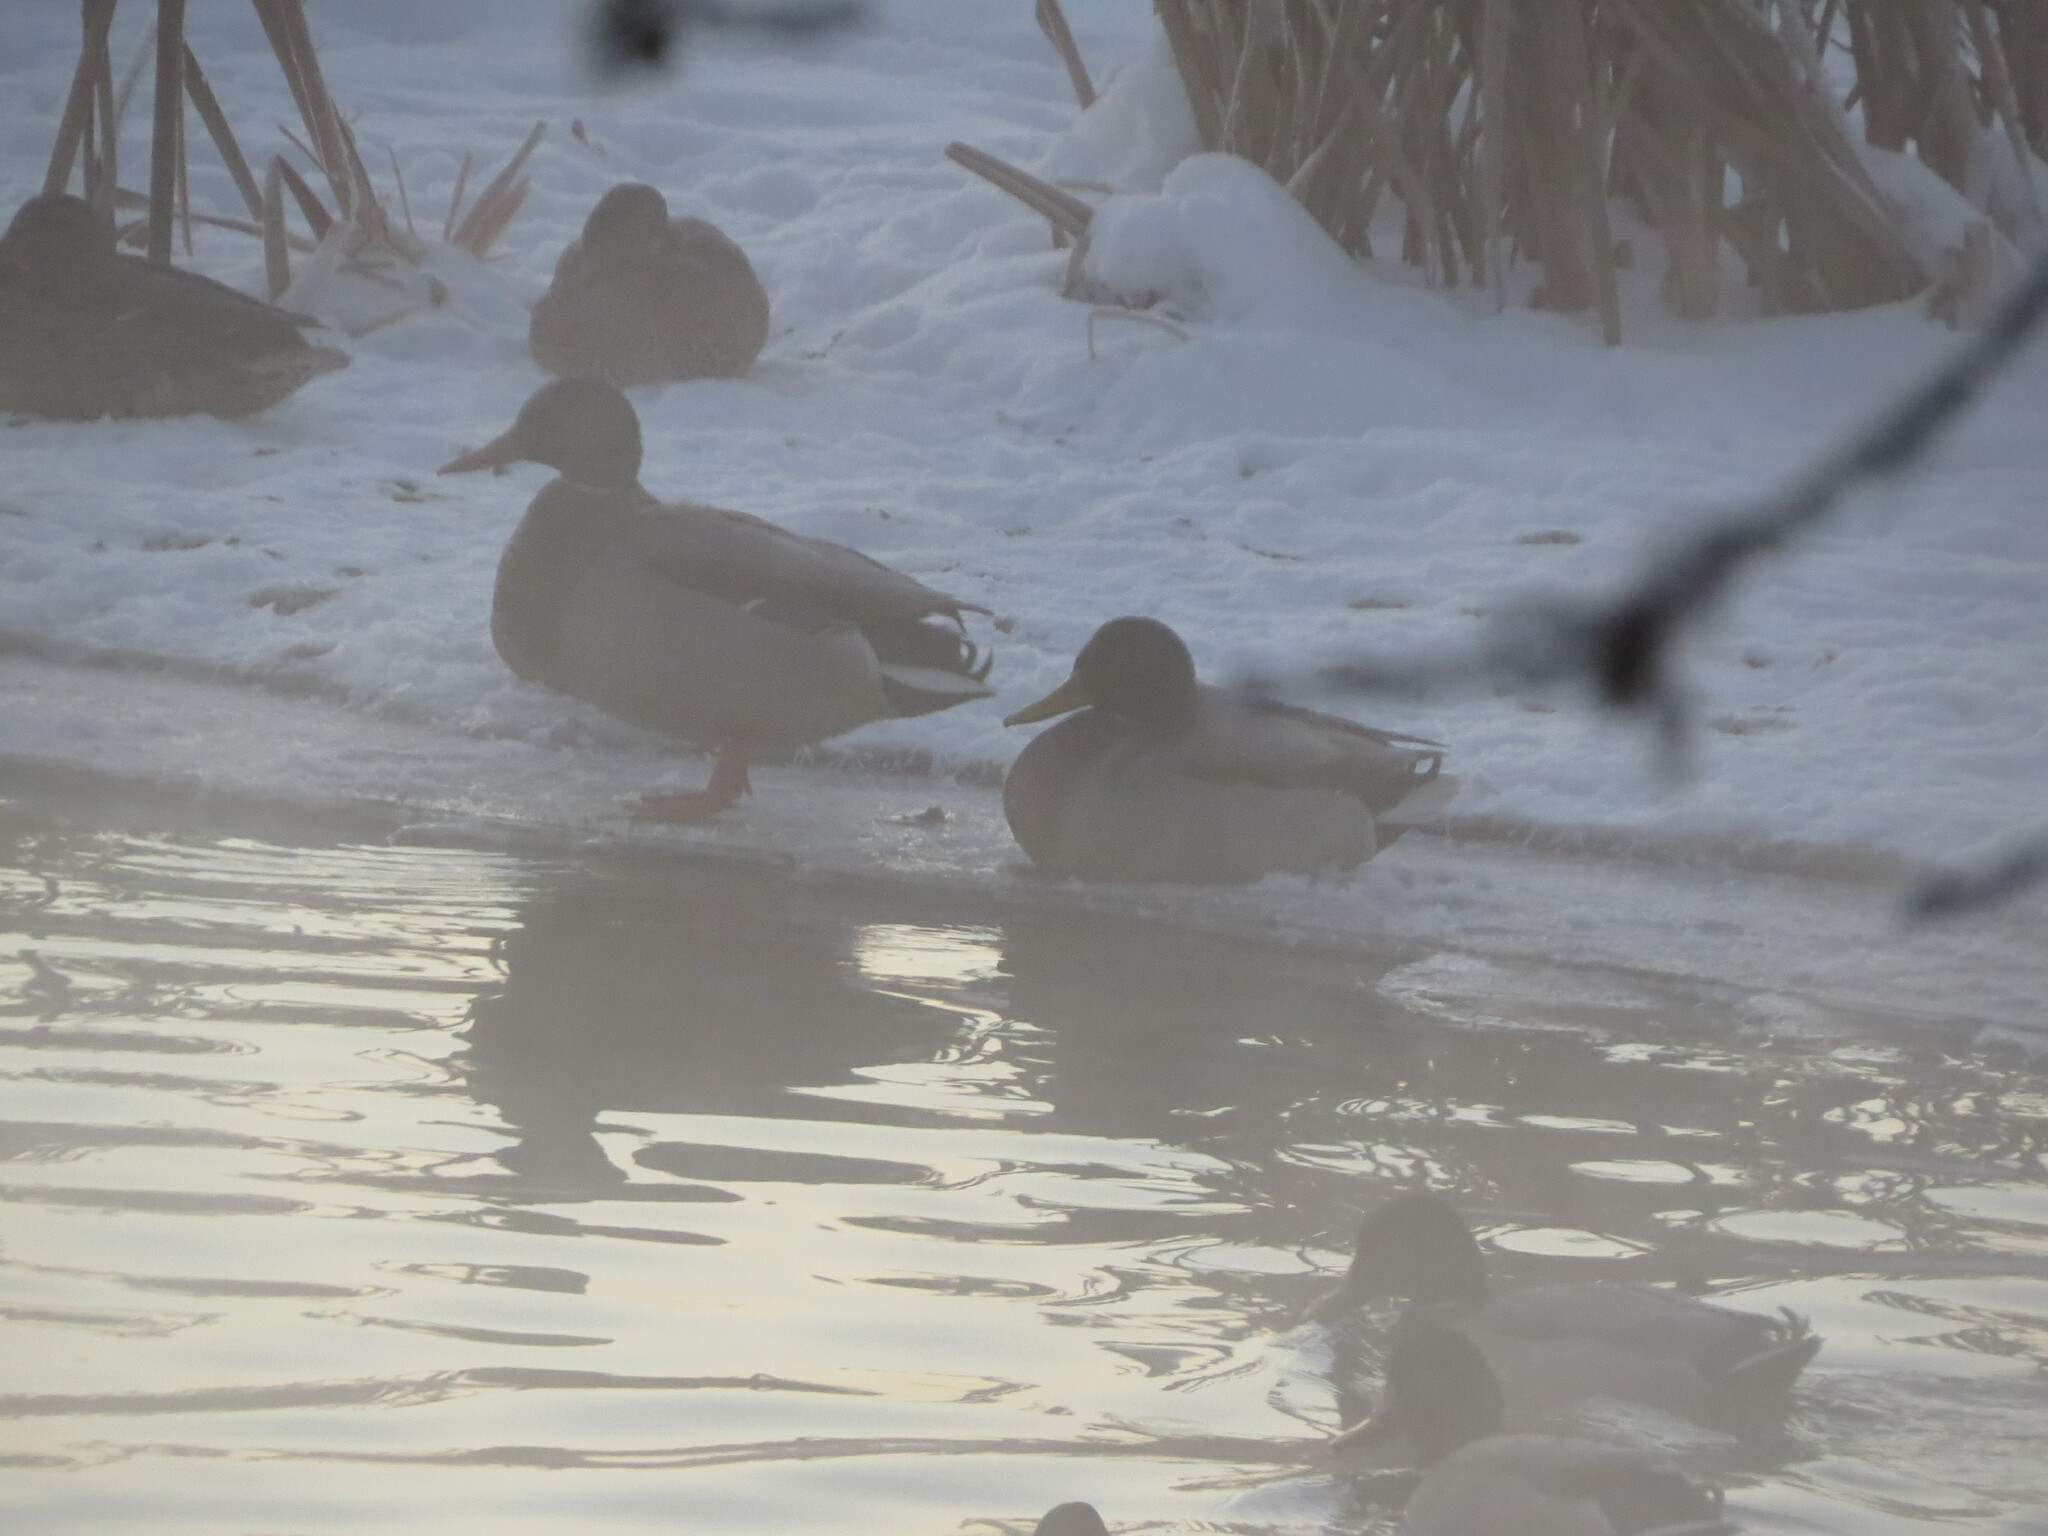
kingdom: Animalia
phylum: Chordata
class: Aves
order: Anseriformes
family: Anatidae
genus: Anas
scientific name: Anas platyrhynchos
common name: Mallard
